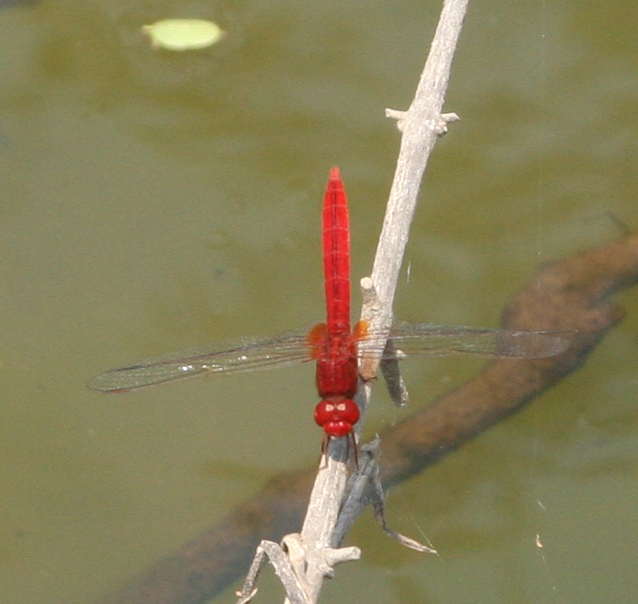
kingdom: Animalia
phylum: Arthropoda
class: Insecta
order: Odonata
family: Libellulidae
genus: Crocothemis
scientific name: Crocothemis servilia
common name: Scarlet skimmer
